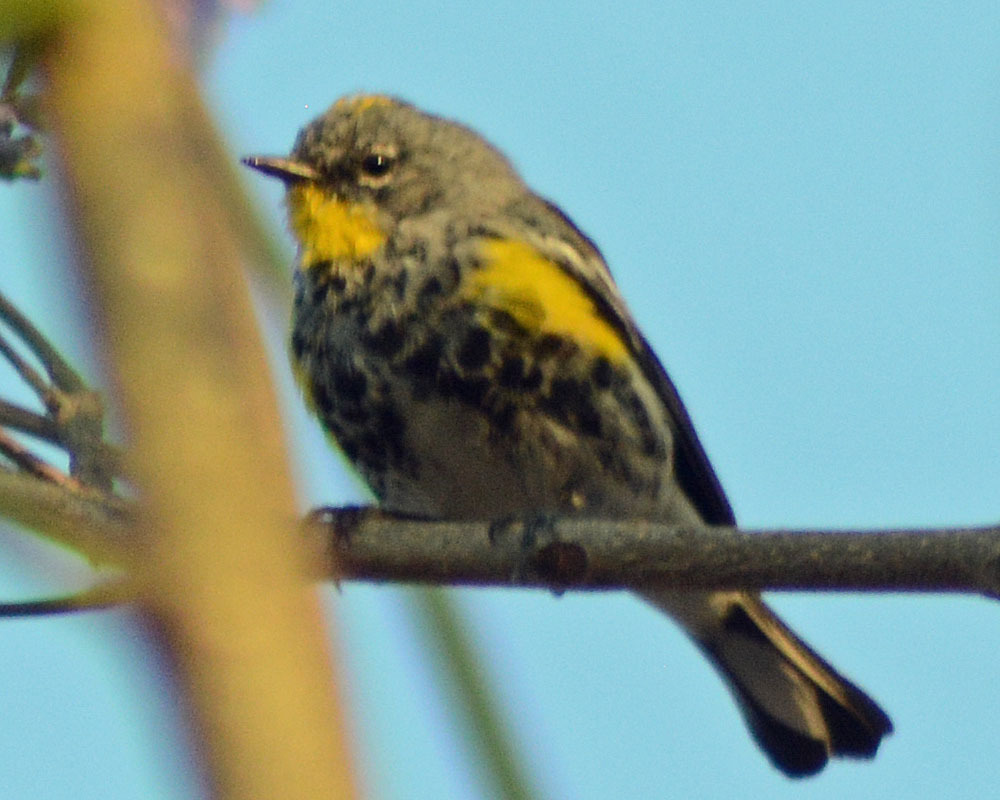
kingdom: Animalia
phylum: Chordata
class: Aves
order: Passeriformes
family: Parulidae
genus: Setophaga
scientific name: Setophaga auduboni
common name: Audubon's warbler
